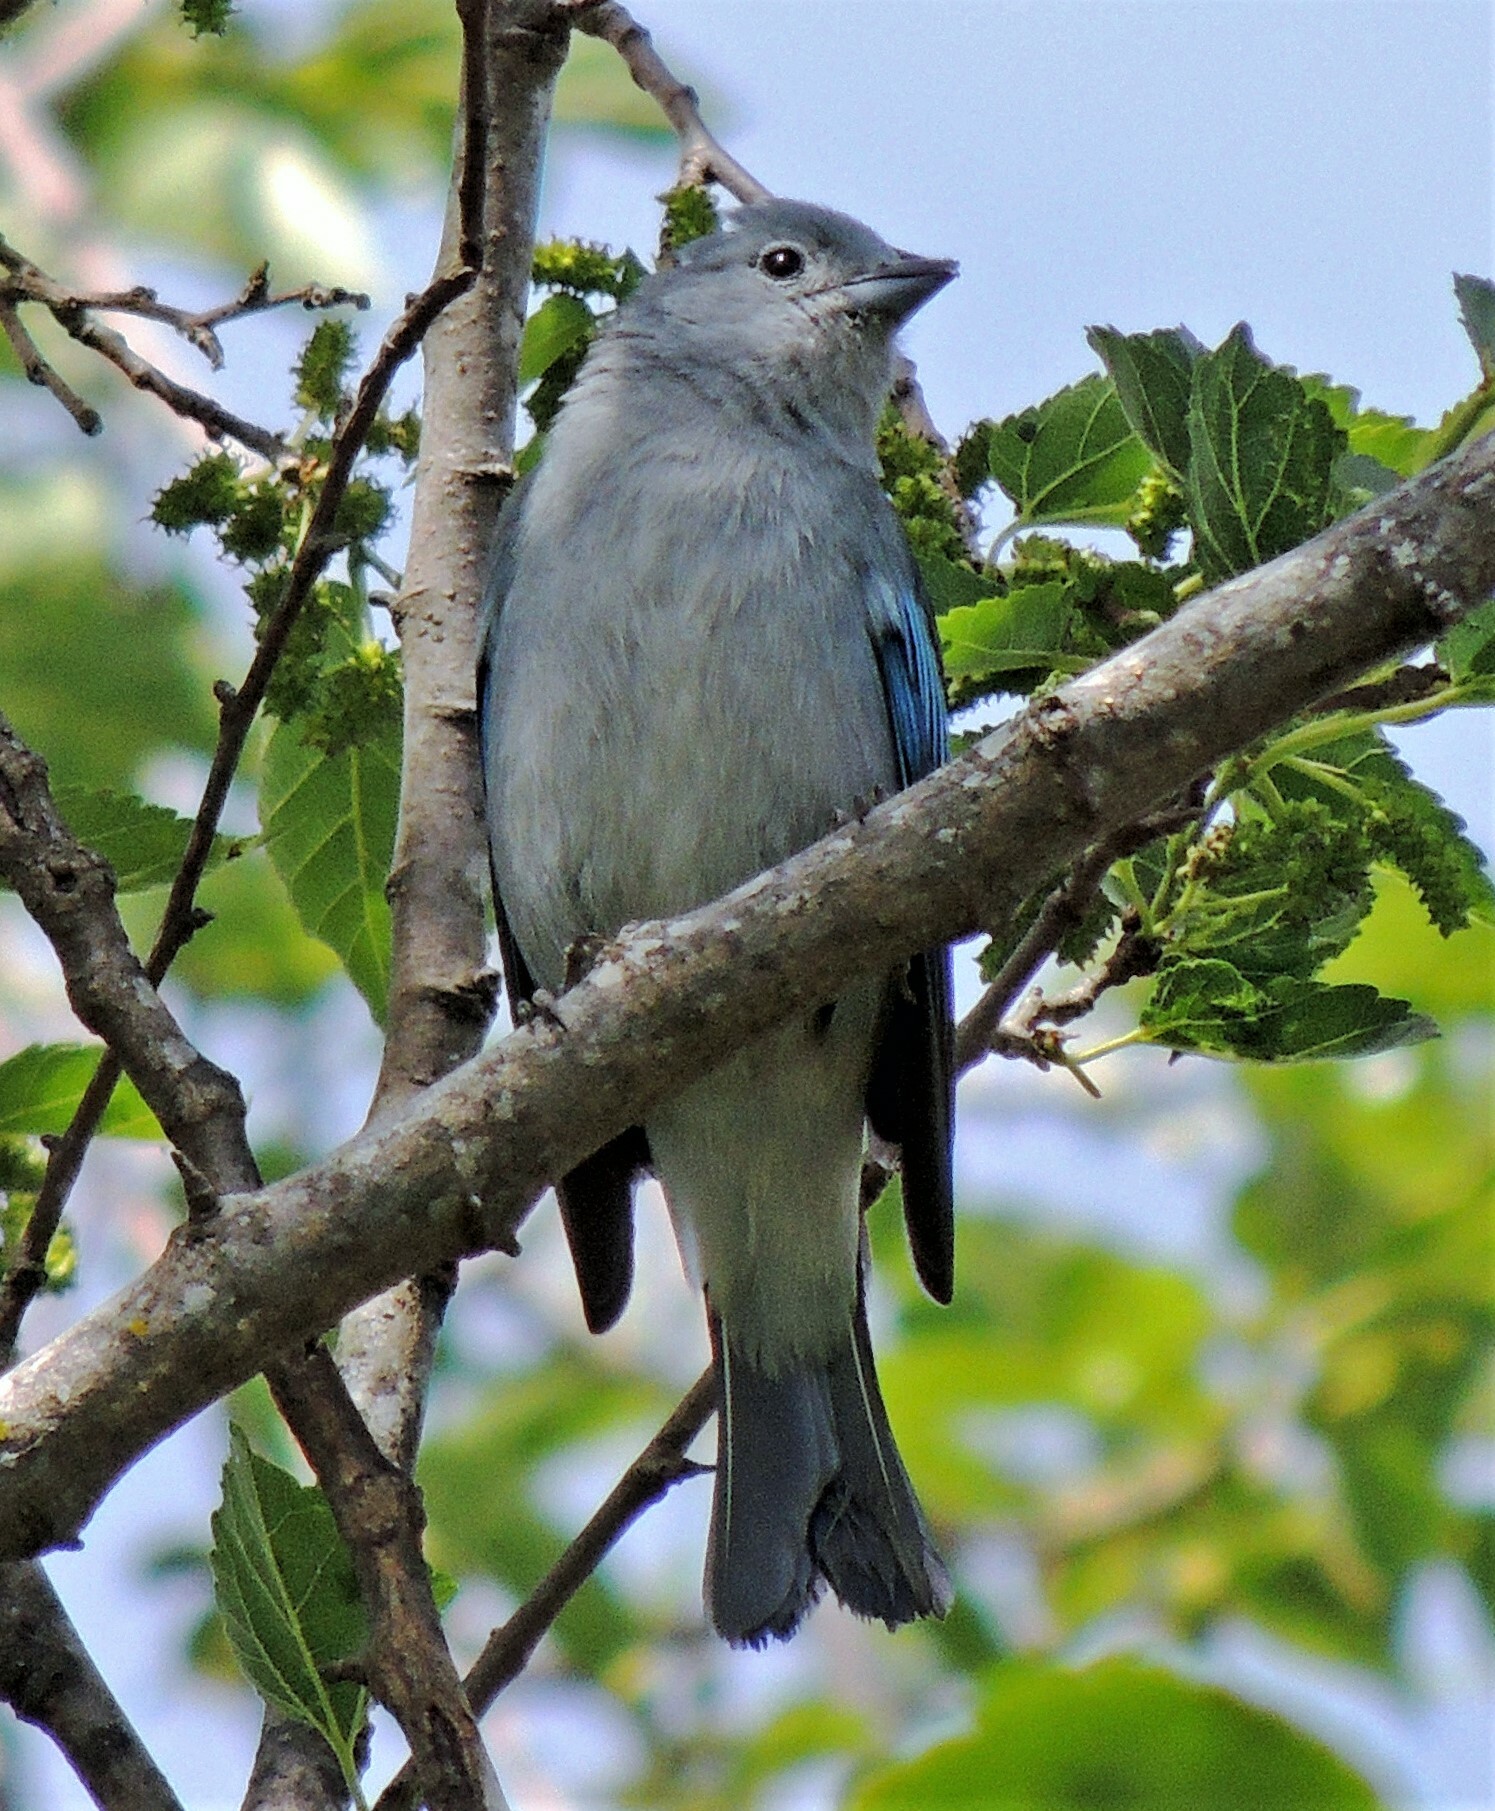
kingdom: Animalia
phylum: Chordata
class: Aves
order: Passeriformes
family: Thraupidae
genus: Thraupis
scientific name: Thraupis sayaca
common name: Sayaca tanager
